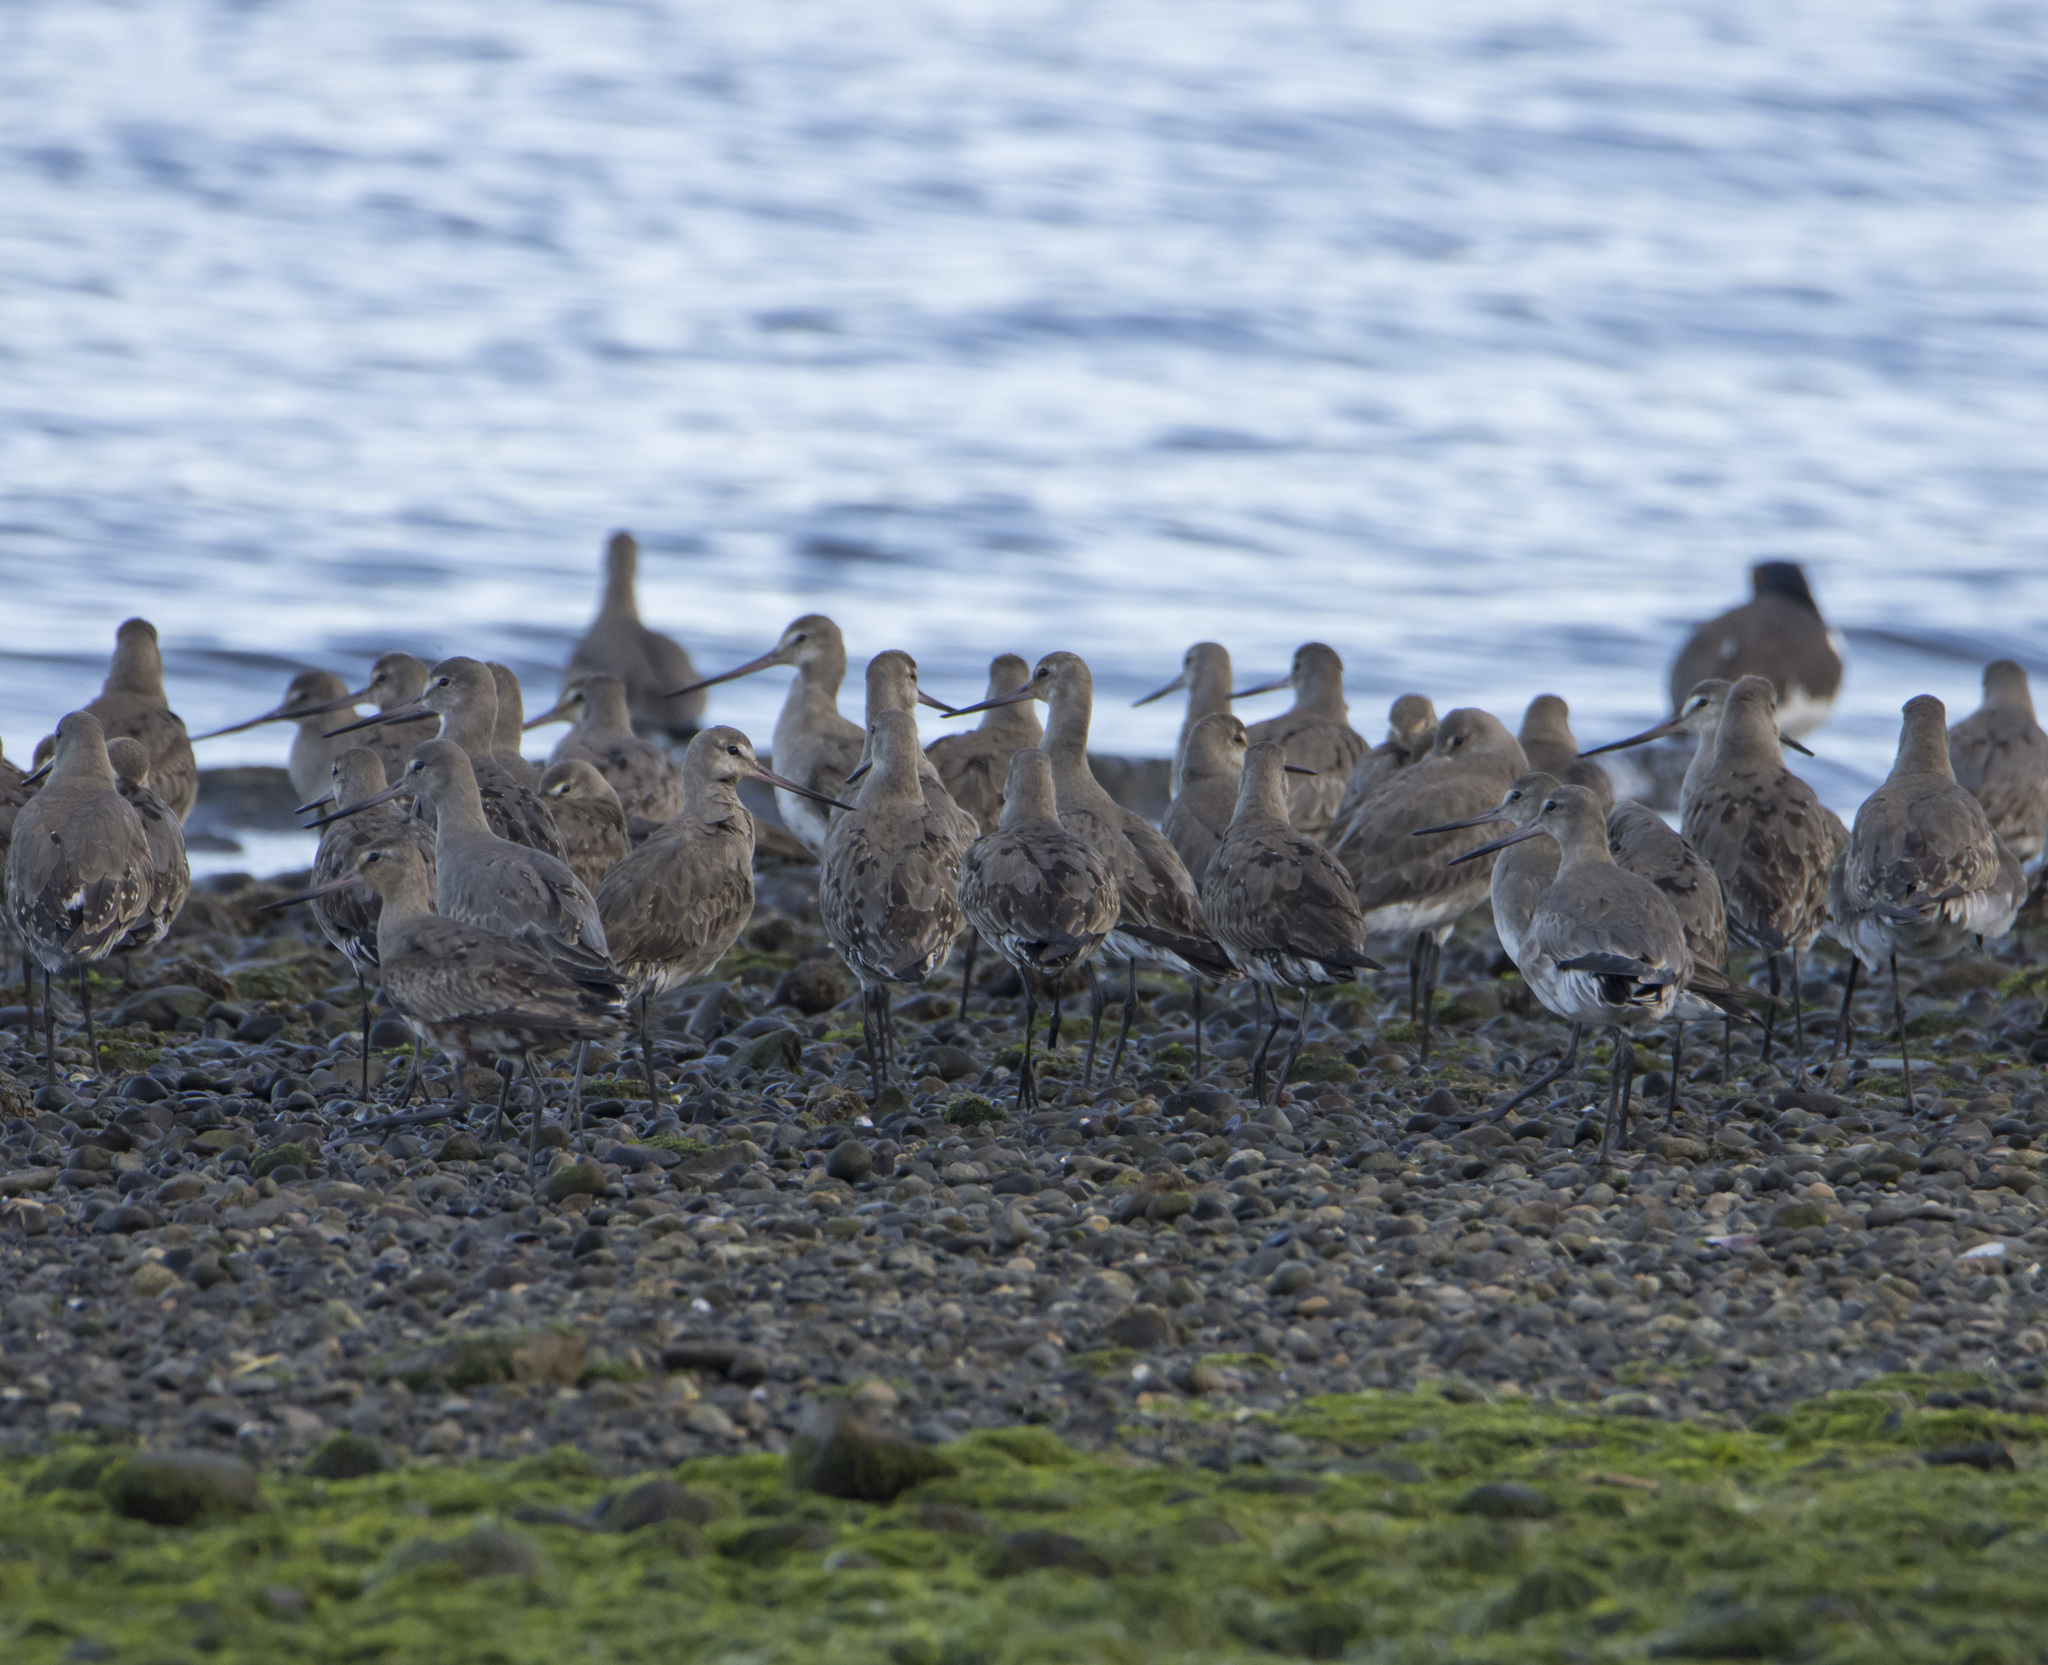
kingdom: Animalia
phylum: Chordata
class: Aves
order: Charadriiformes
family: Scolopacidae
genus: Limosa
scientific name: Limosa haemastica
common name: Hudsonian godwit
